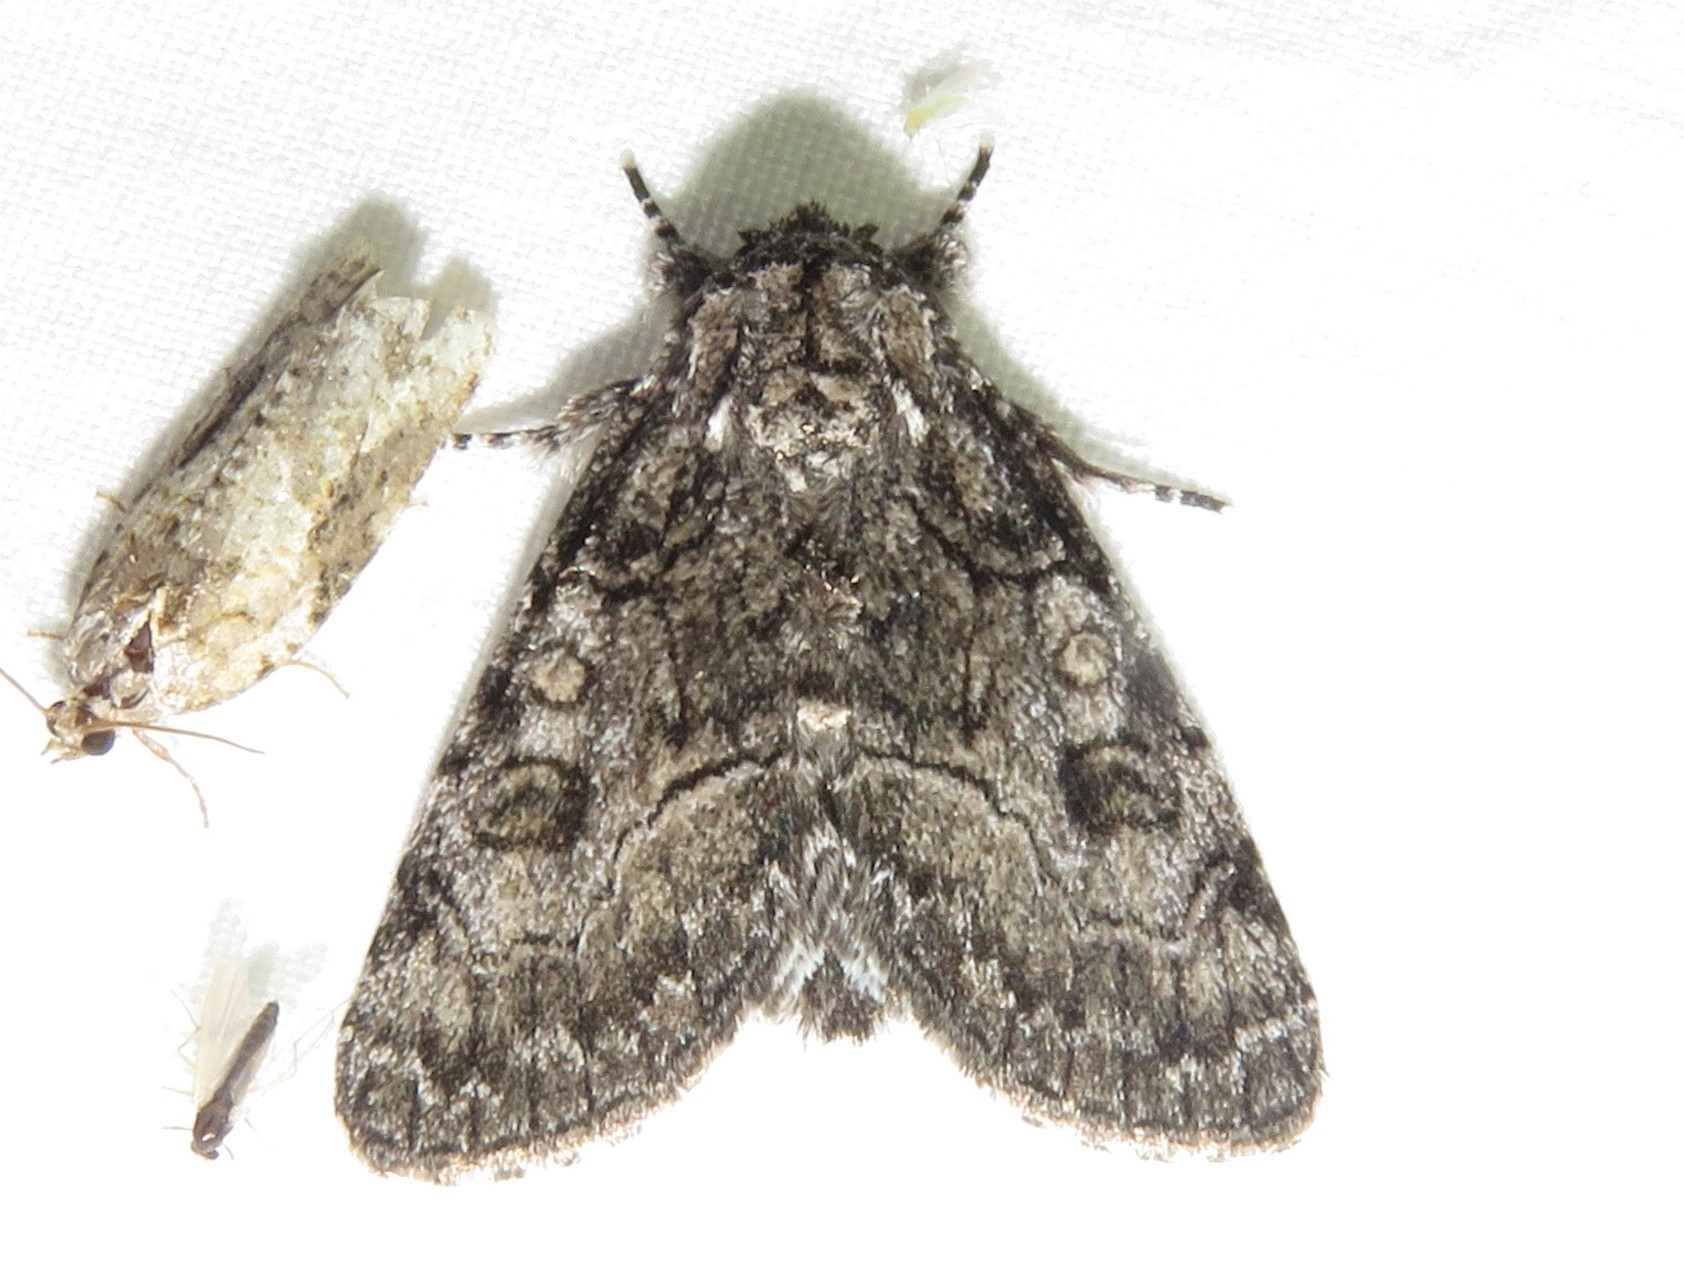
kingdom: Animalia
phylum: Arthropoda
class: Insecta
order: Lepidoptera
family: Noctuidae
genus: Raphia
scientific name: Raphia frater
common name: Brother
